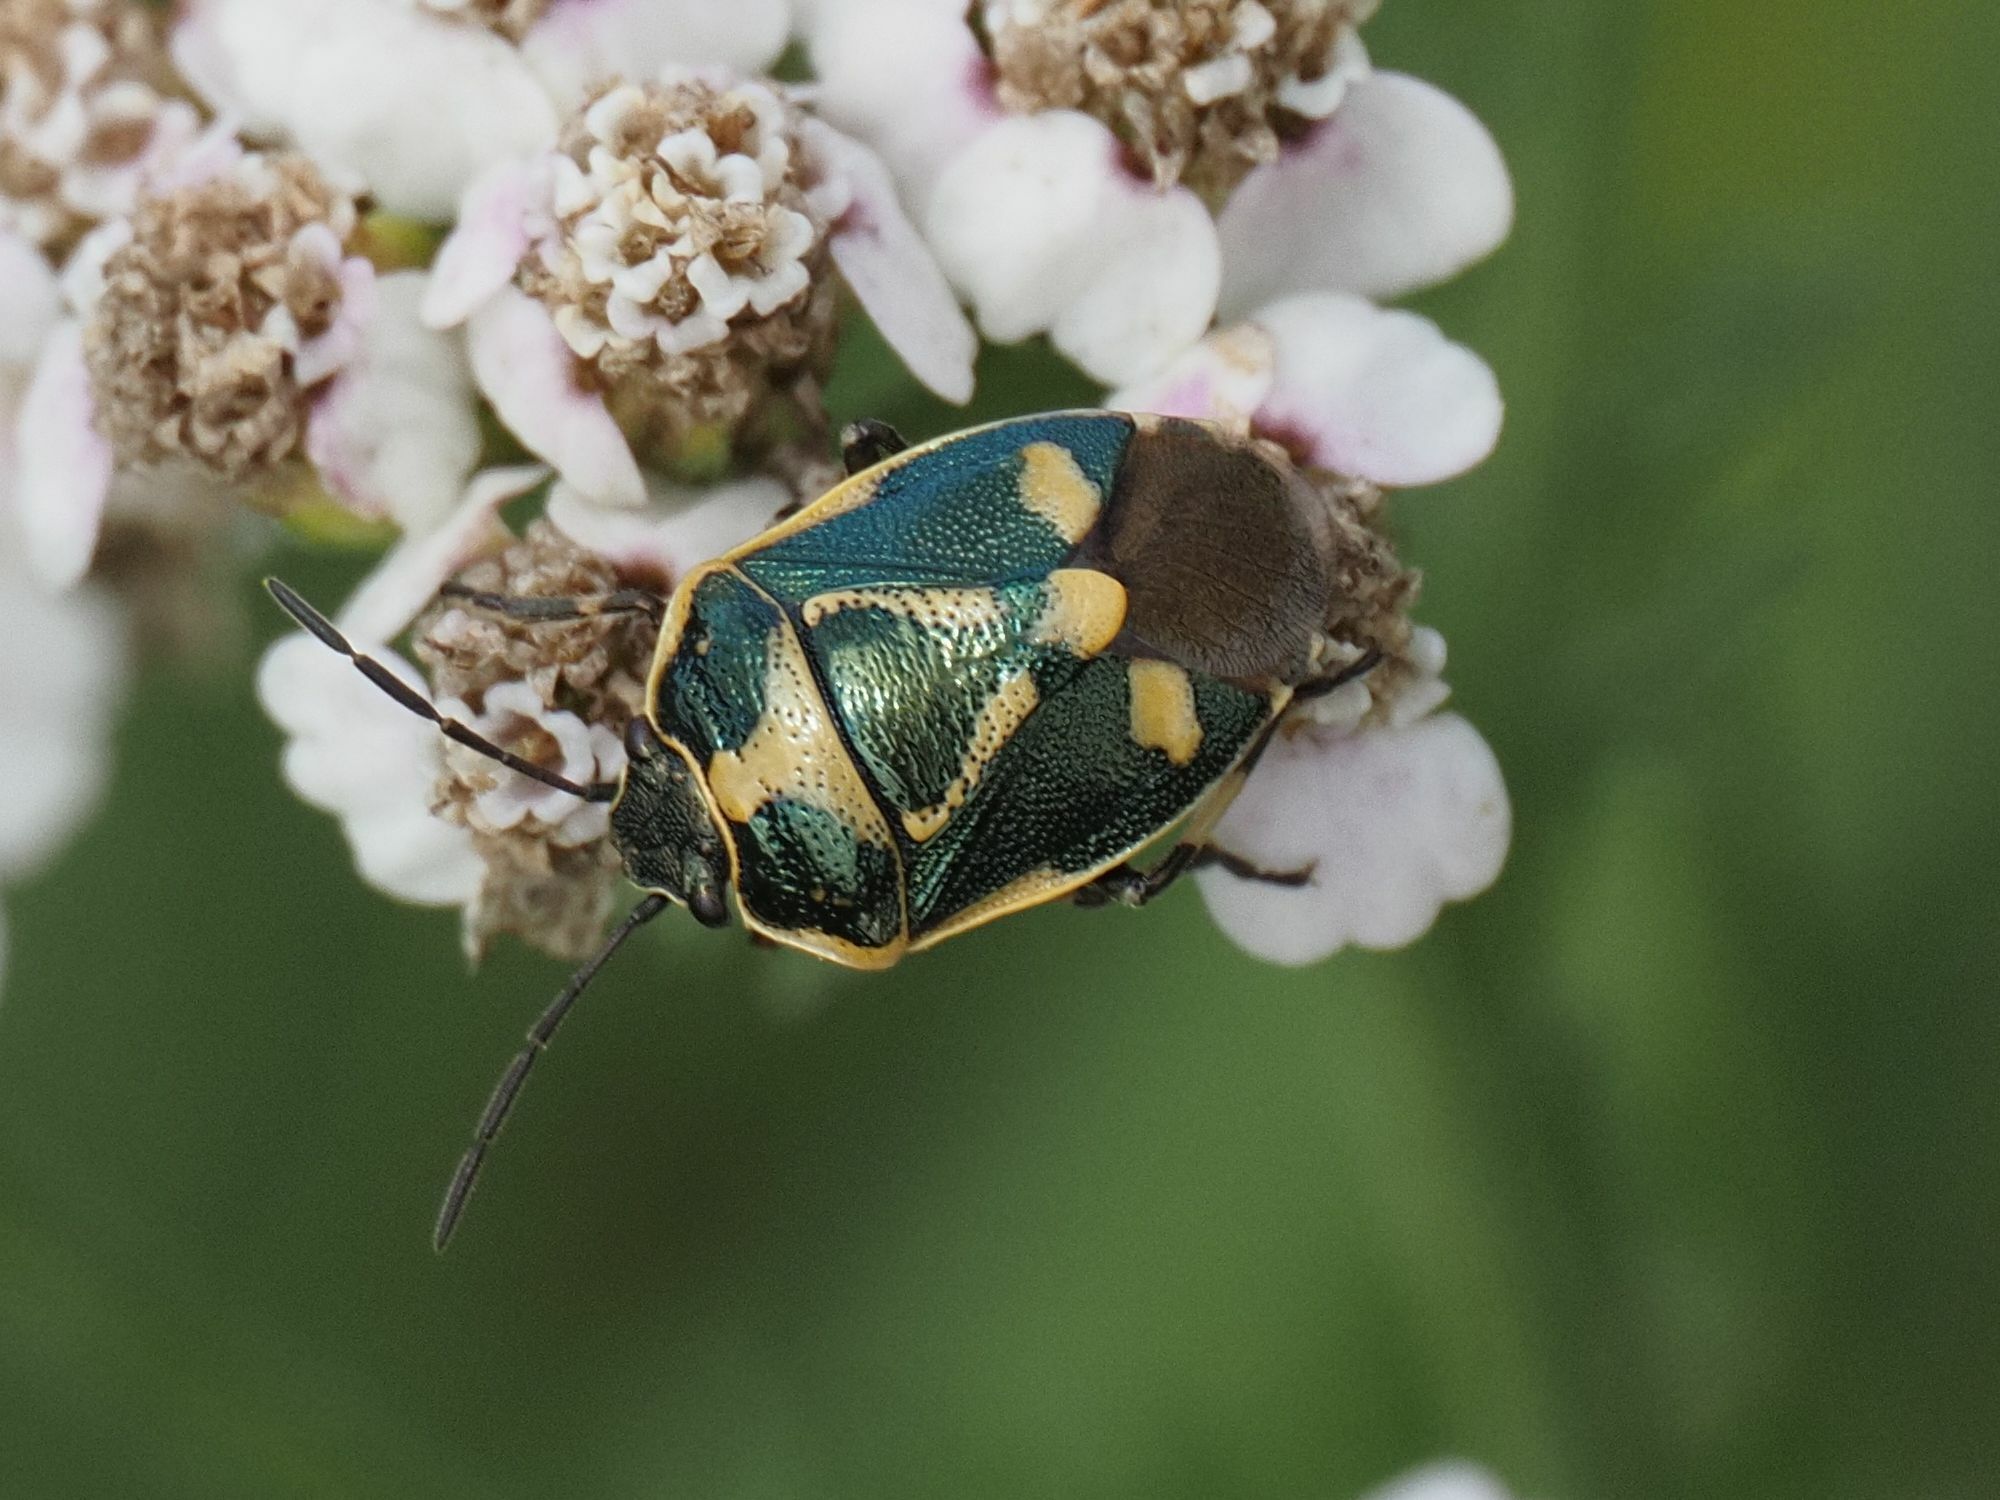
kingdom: Animalia
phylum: Arthropoda
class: Insecta
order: Hemiptera
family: Pentatomidae
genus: Eurydema
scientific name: Eurydema oleracea
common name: Cabbage bug
